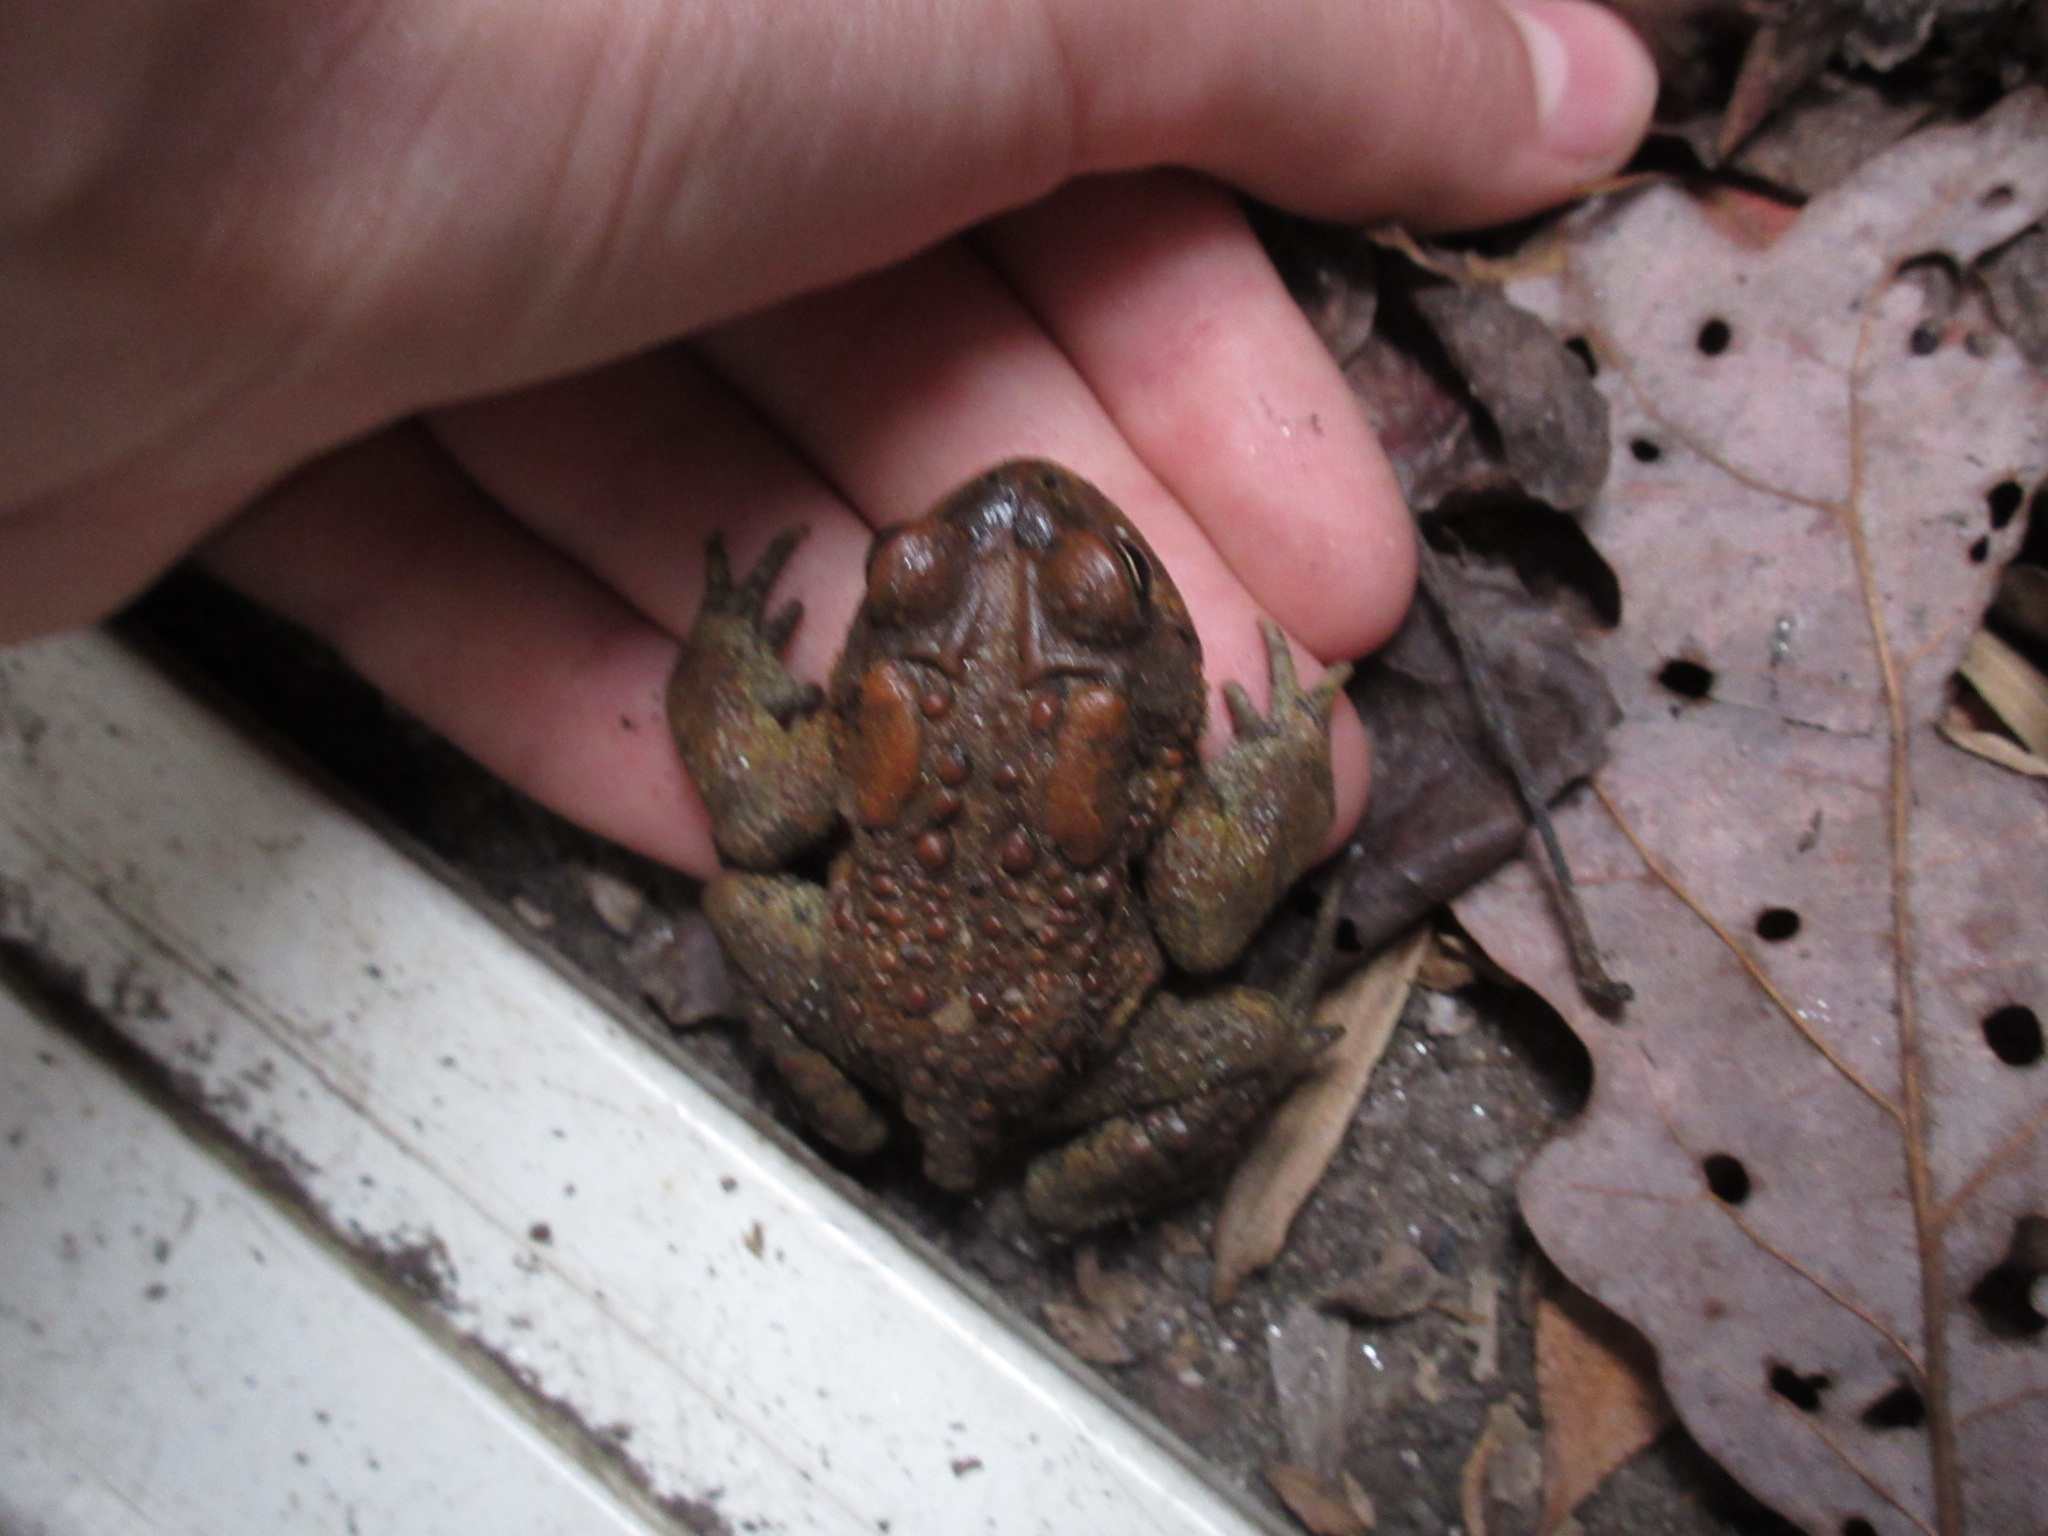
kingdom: Animalia
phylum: Chordata
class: Amphibia
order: Anura
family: Bufonidae
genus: Anaxyrus
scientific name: Anaxyrus americanus
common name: American toad
